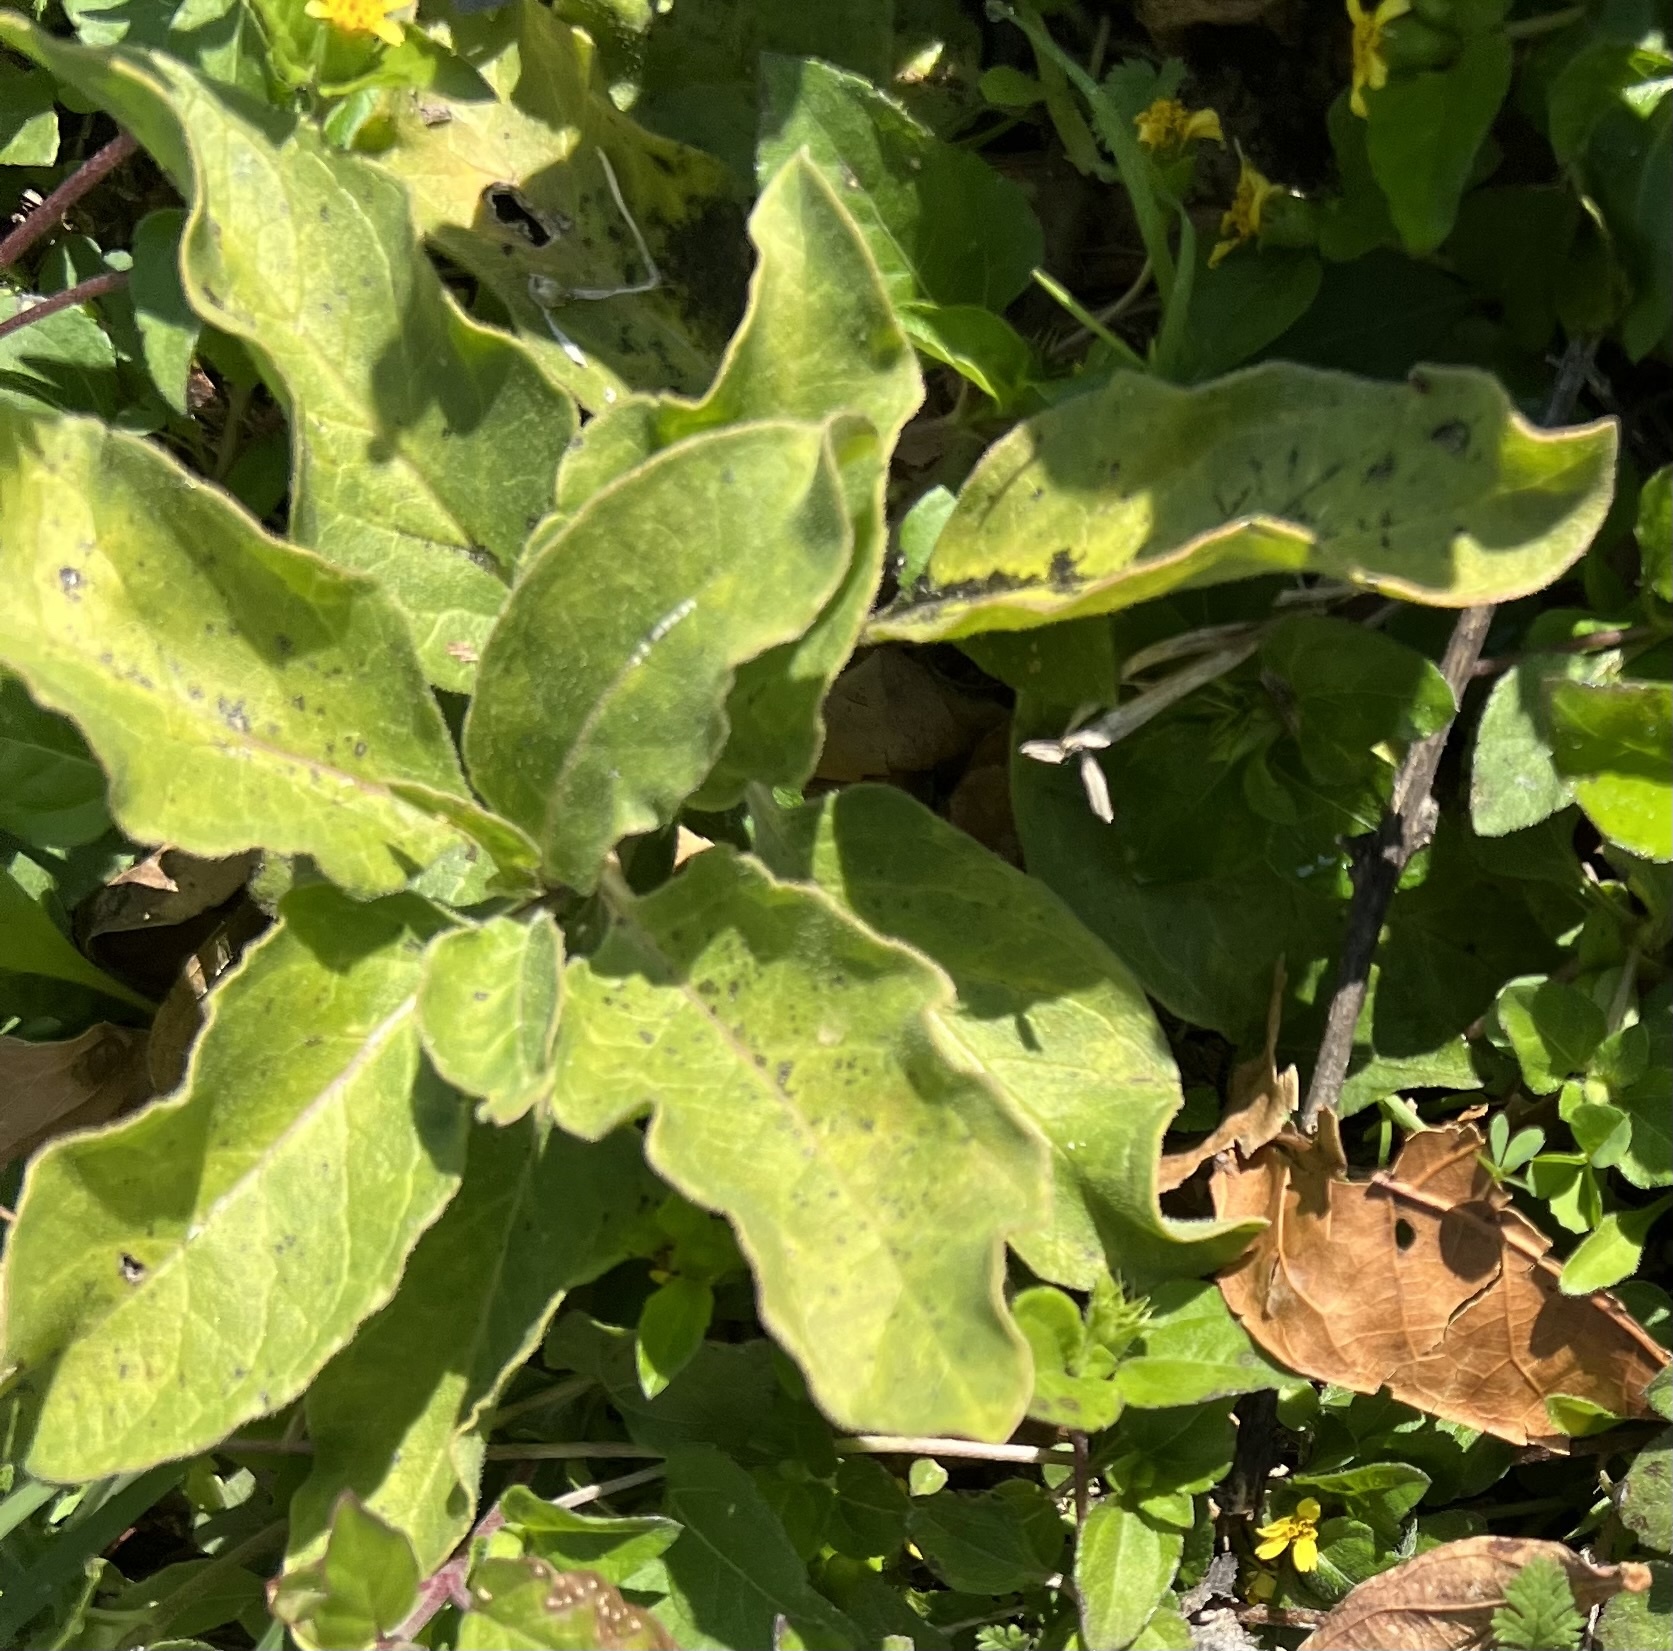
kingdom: Plantae
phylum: Tracheophyta
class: Magnoliopsida
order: Gentianales
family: Apocynaceae
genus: Asclepias
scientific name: Asclepias oenotheroides
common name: Zizotes milkweed
